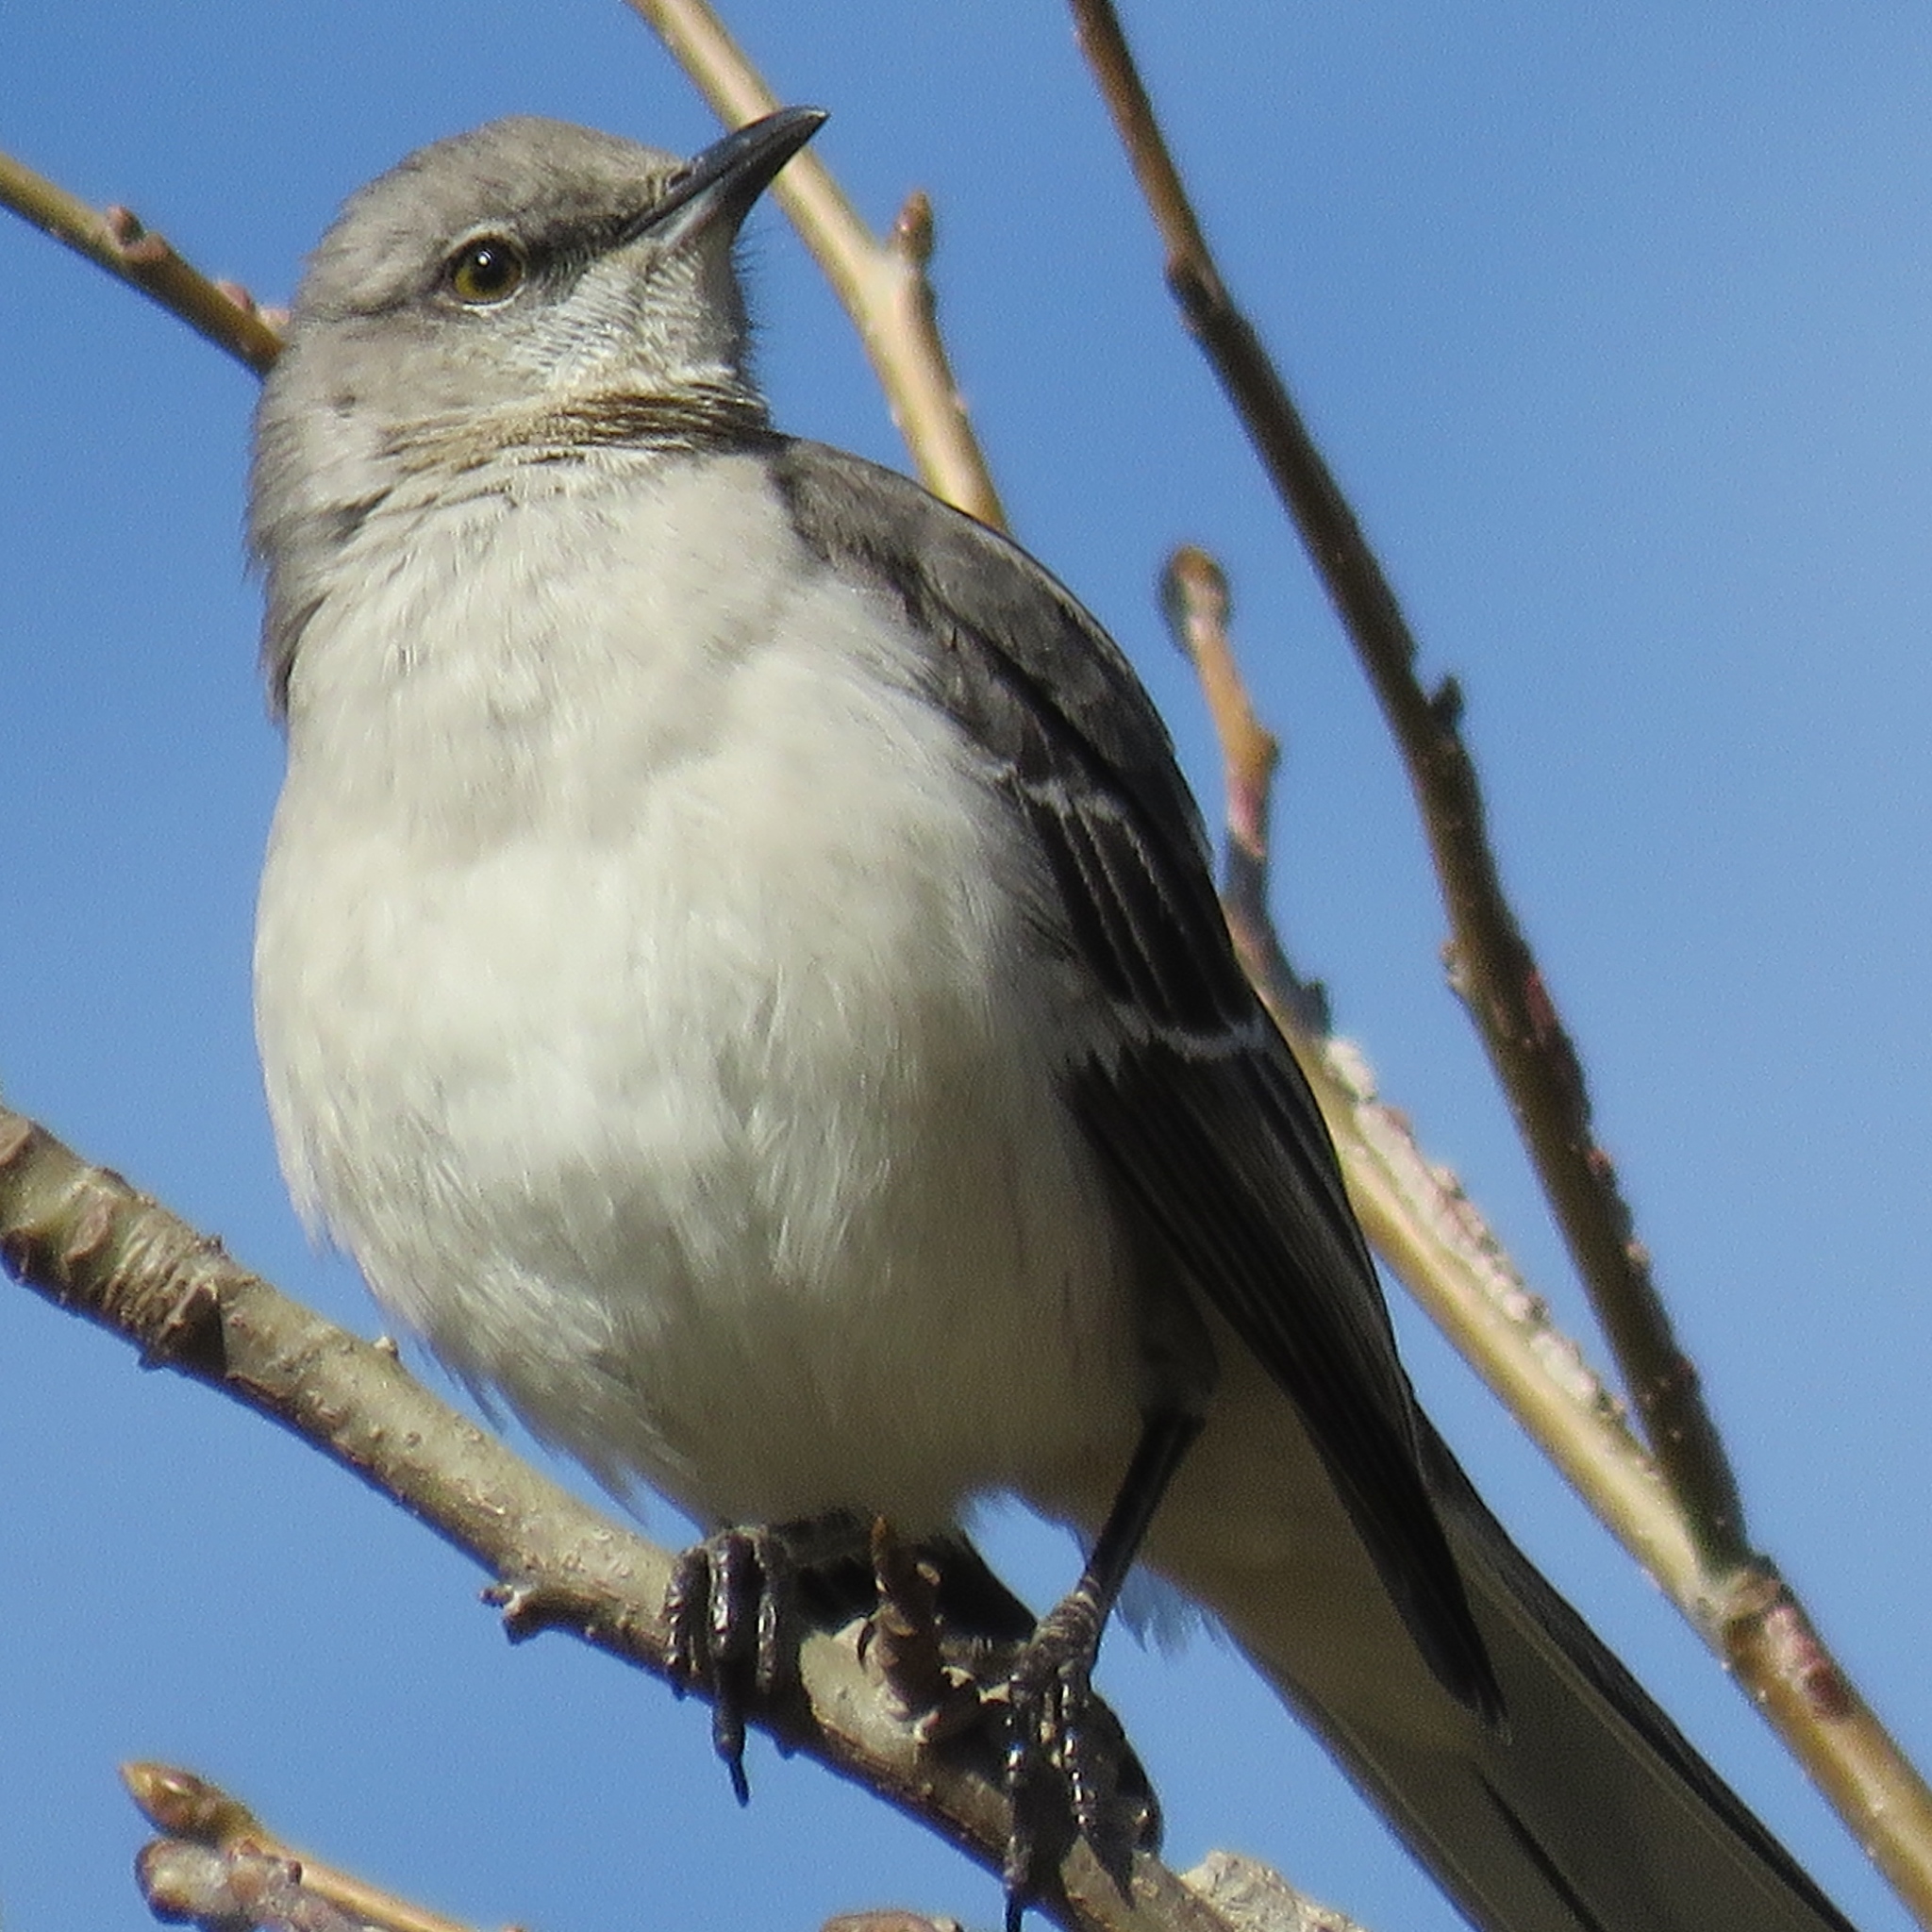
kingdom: Animalia
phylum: Chordata
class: Aves
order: Passeriformes
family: Mimidae
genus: Mimus
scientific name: Mimus polyglottos
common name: Northern mockingbird
